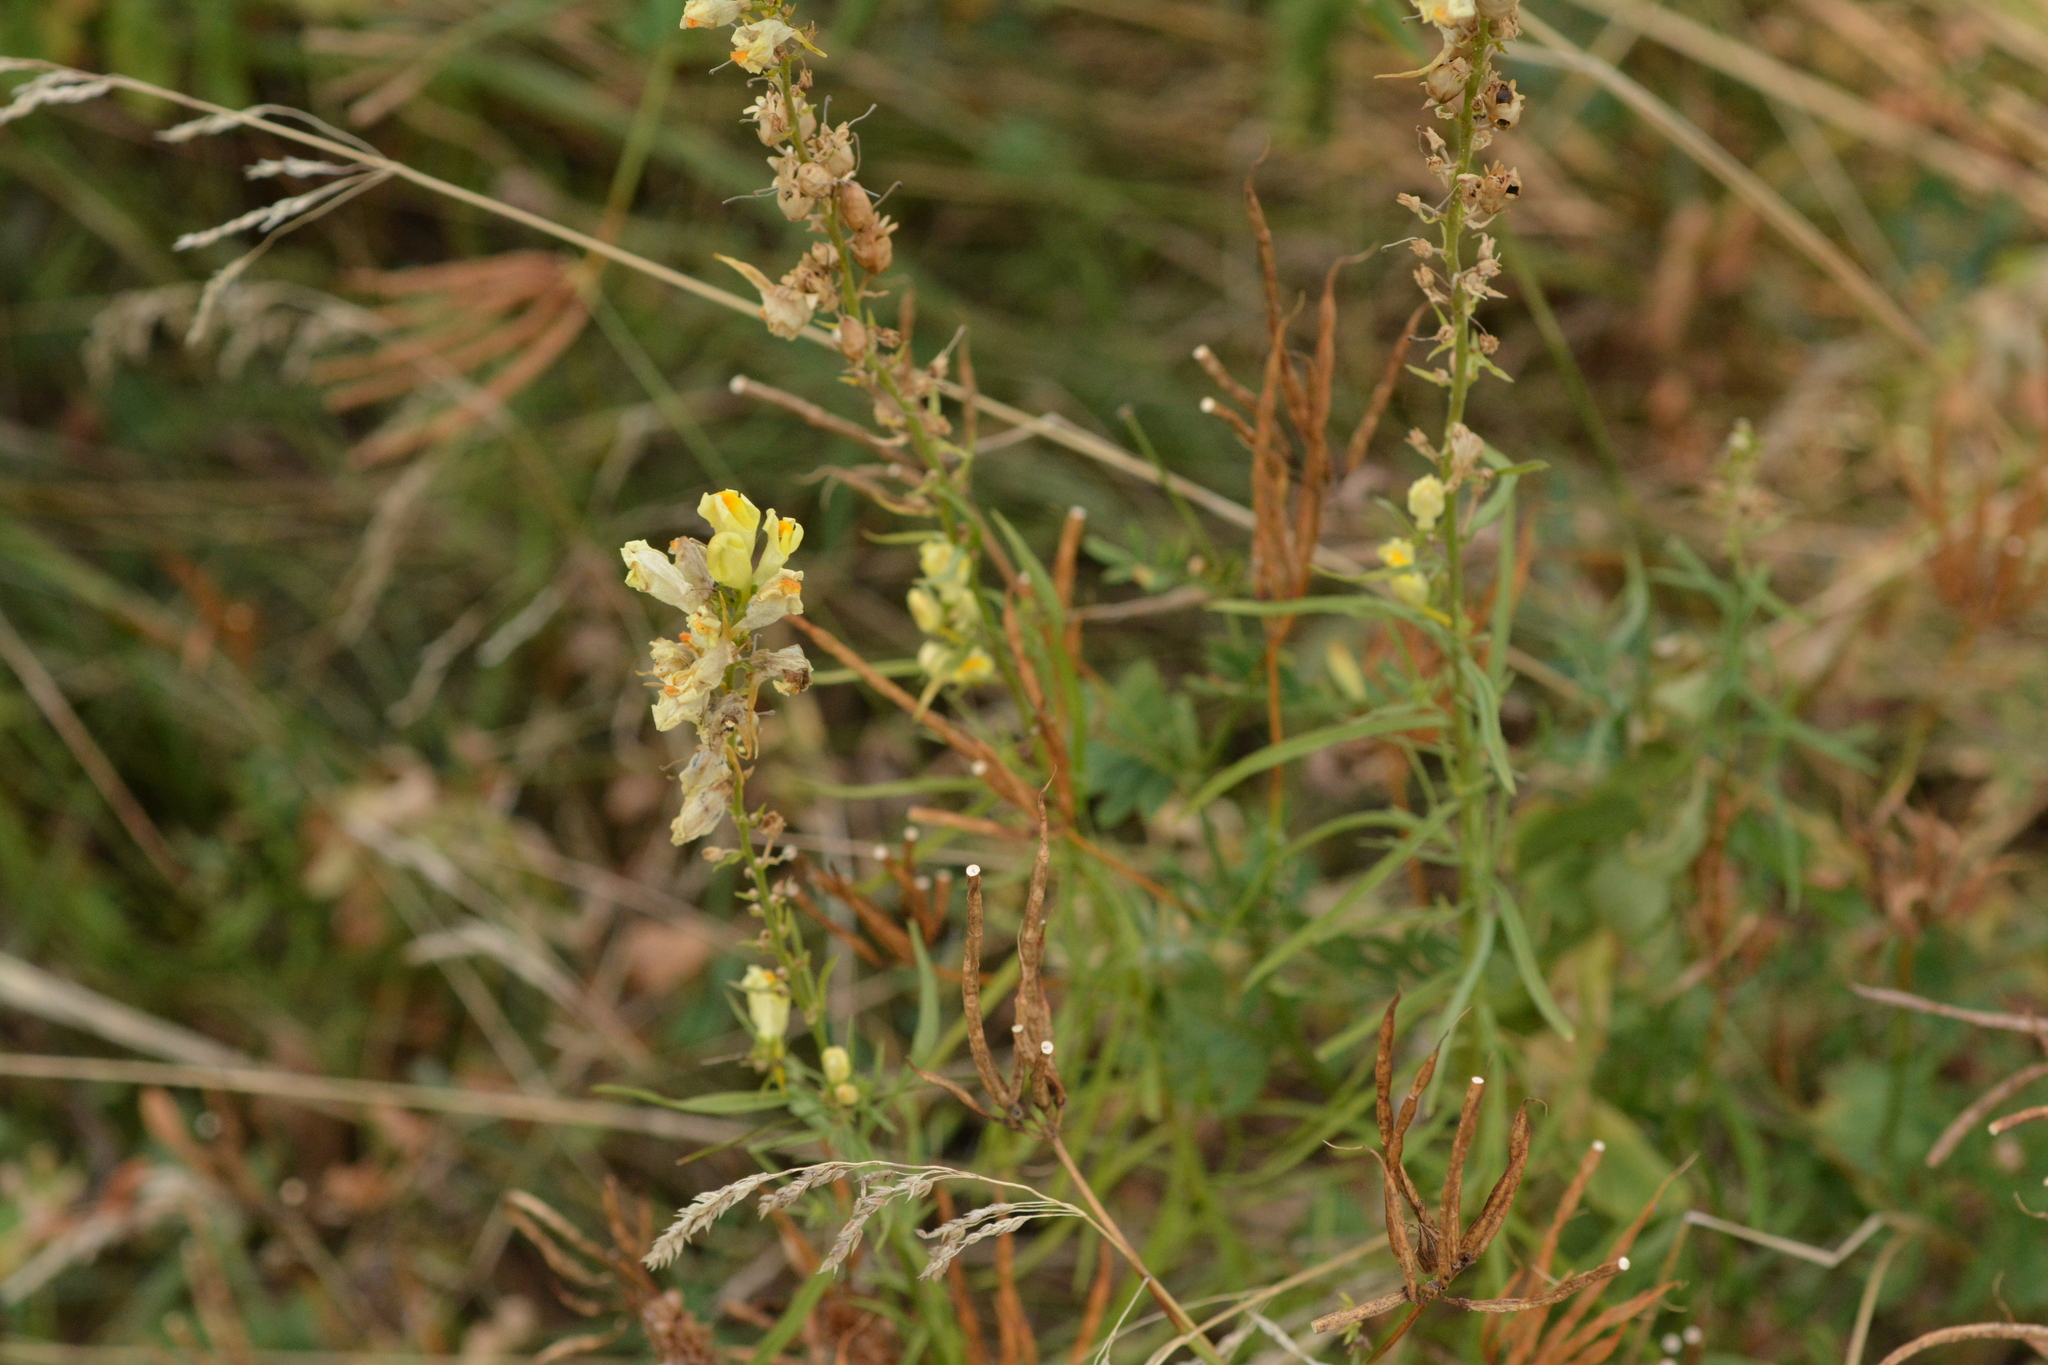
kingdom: Plantae
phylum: Tracheophyta
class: Magnoliopsida
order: Lamiales
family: Plantaginaceae
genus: Linaria
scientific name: Linaria vulgaris
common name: Butter and eggs
